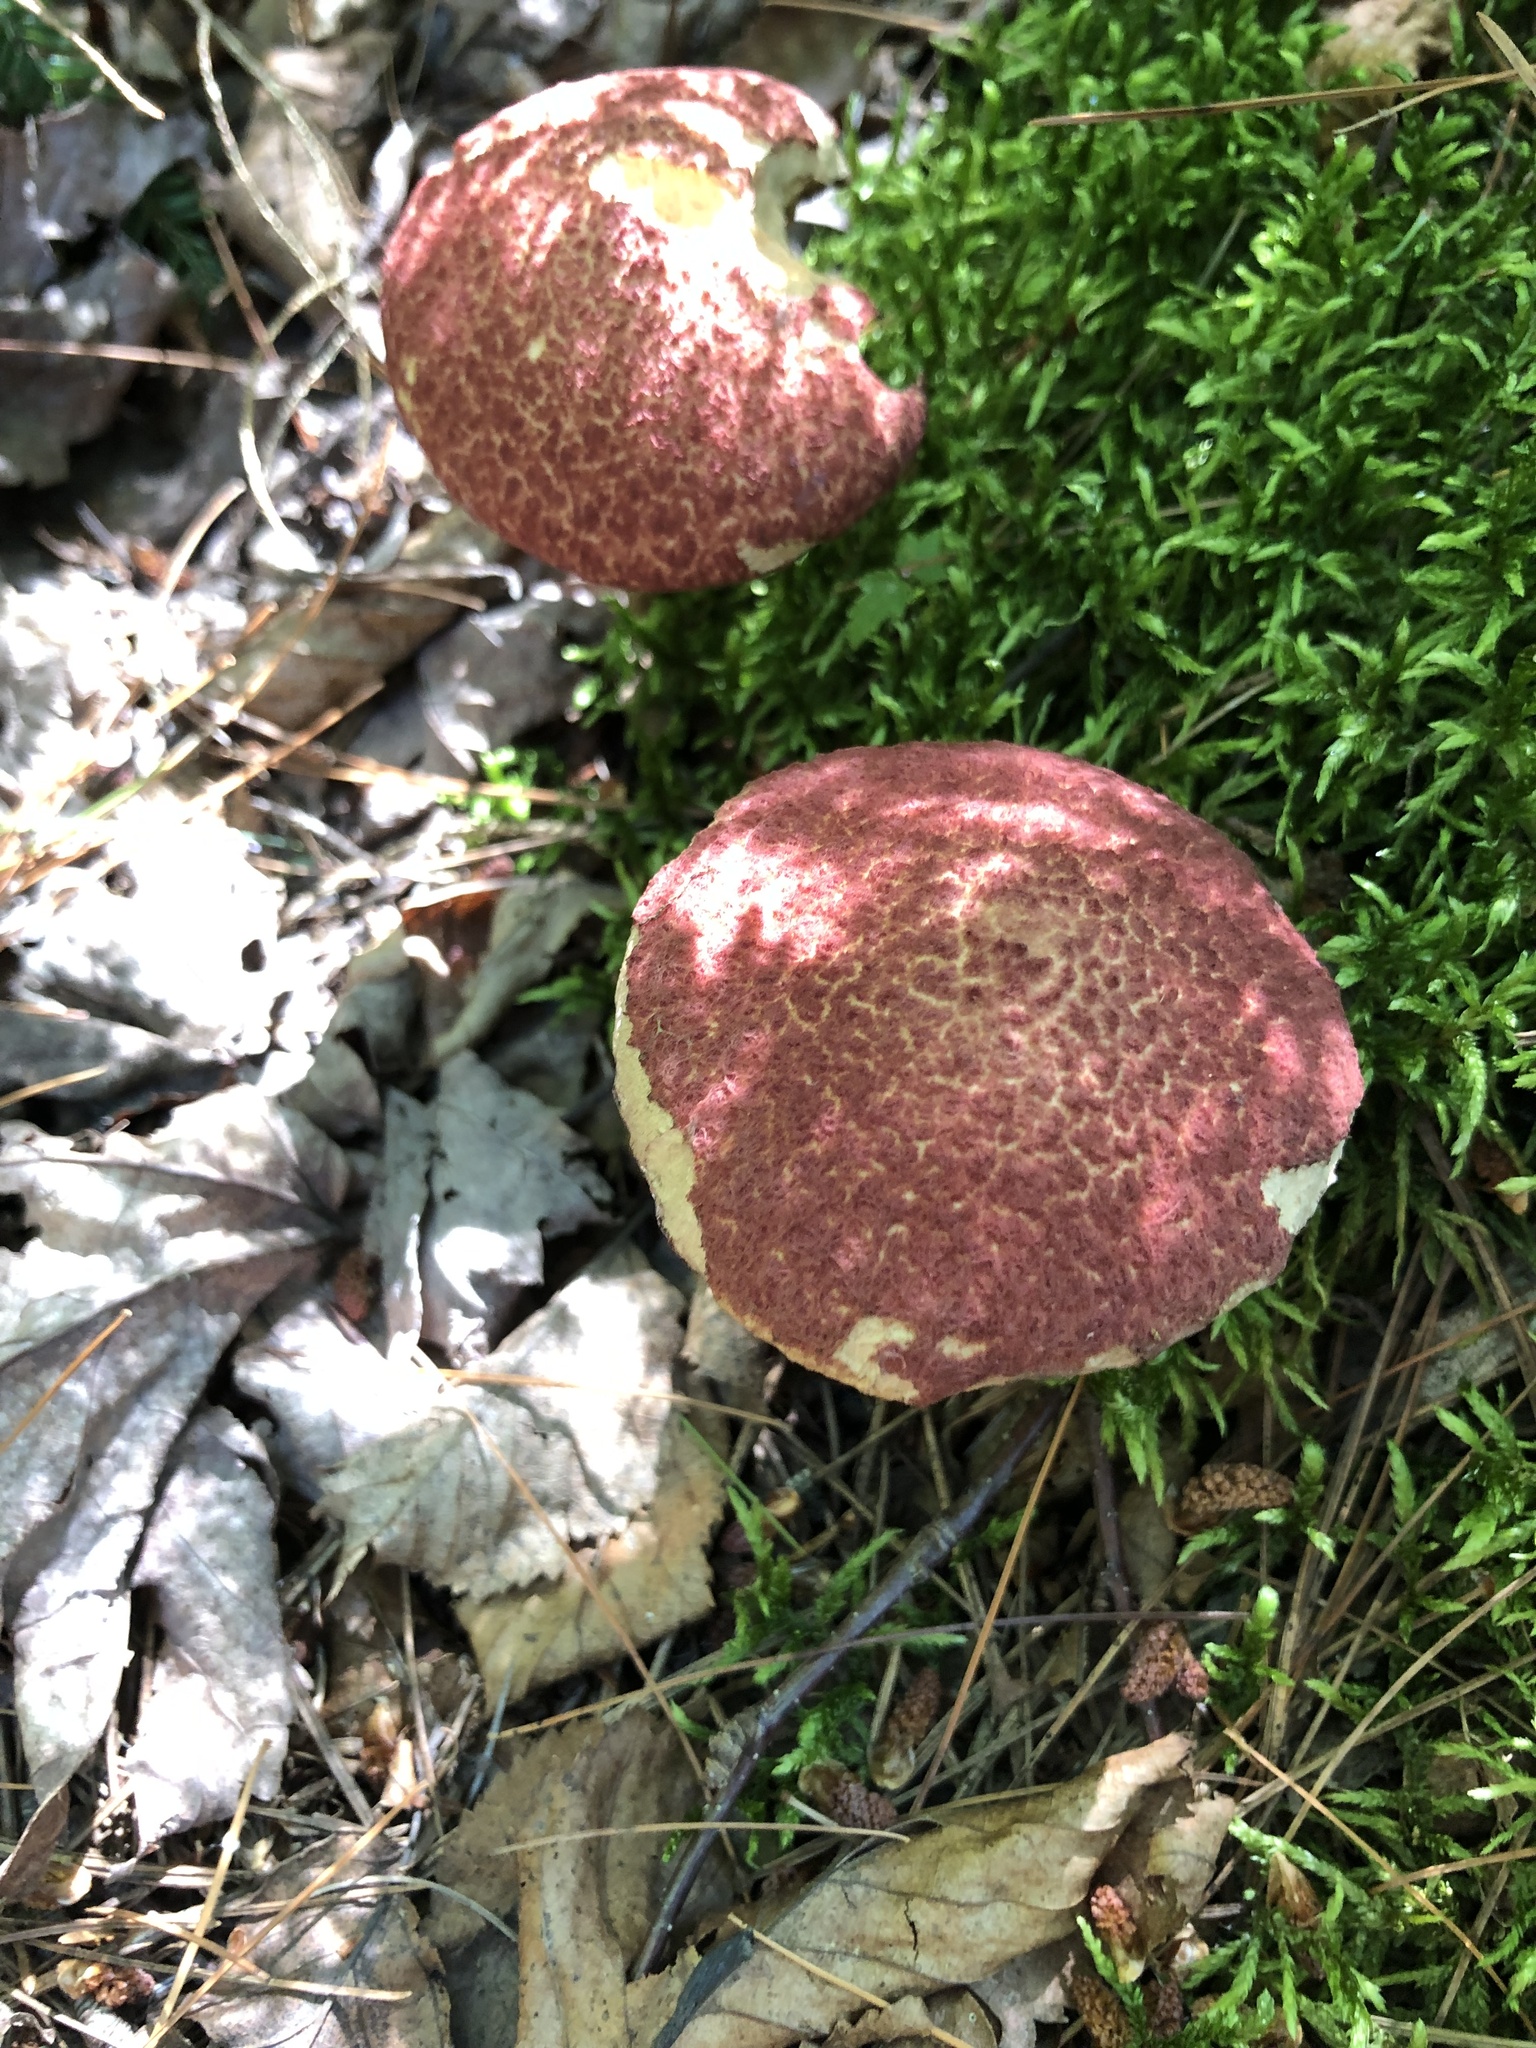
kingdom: Fungi
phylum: Basidiomycota
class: Agaricomycetes
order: Boletales
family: Suillaceae
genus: Suillus
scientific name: Suillus spraguei
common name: Painted suillus
